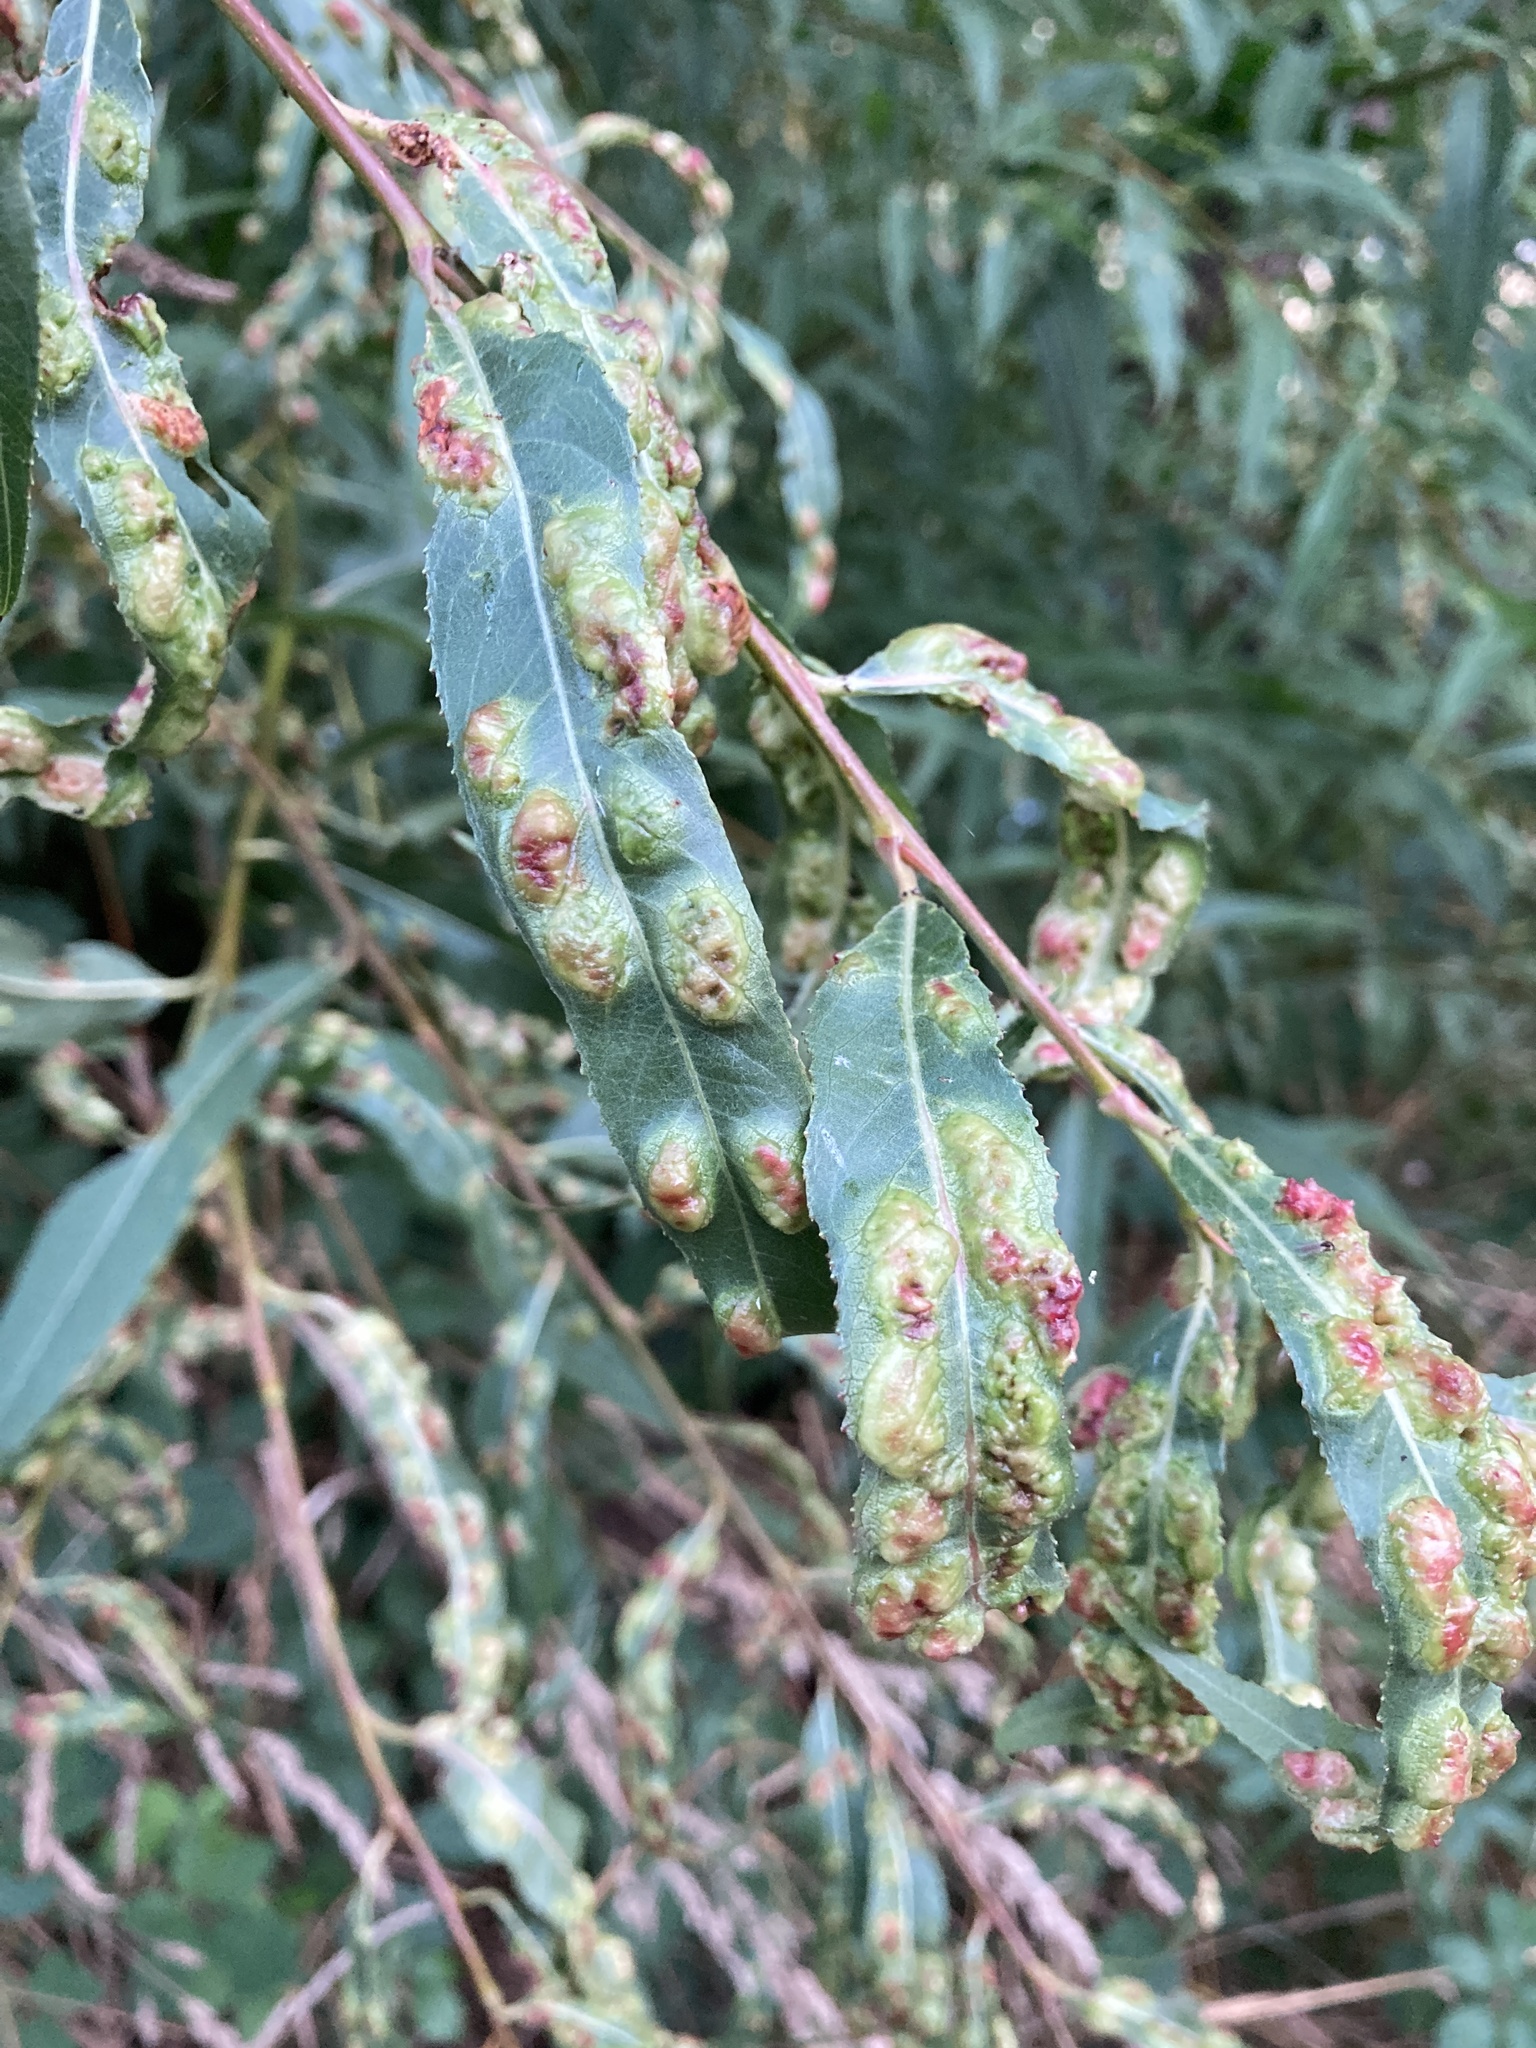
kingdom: Animalia
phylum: Arthropoda
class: Insecta
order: Hymenoptera
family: Tenthredinidae
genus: Pontania
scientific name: Pontania proxima
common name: Common sawfly
